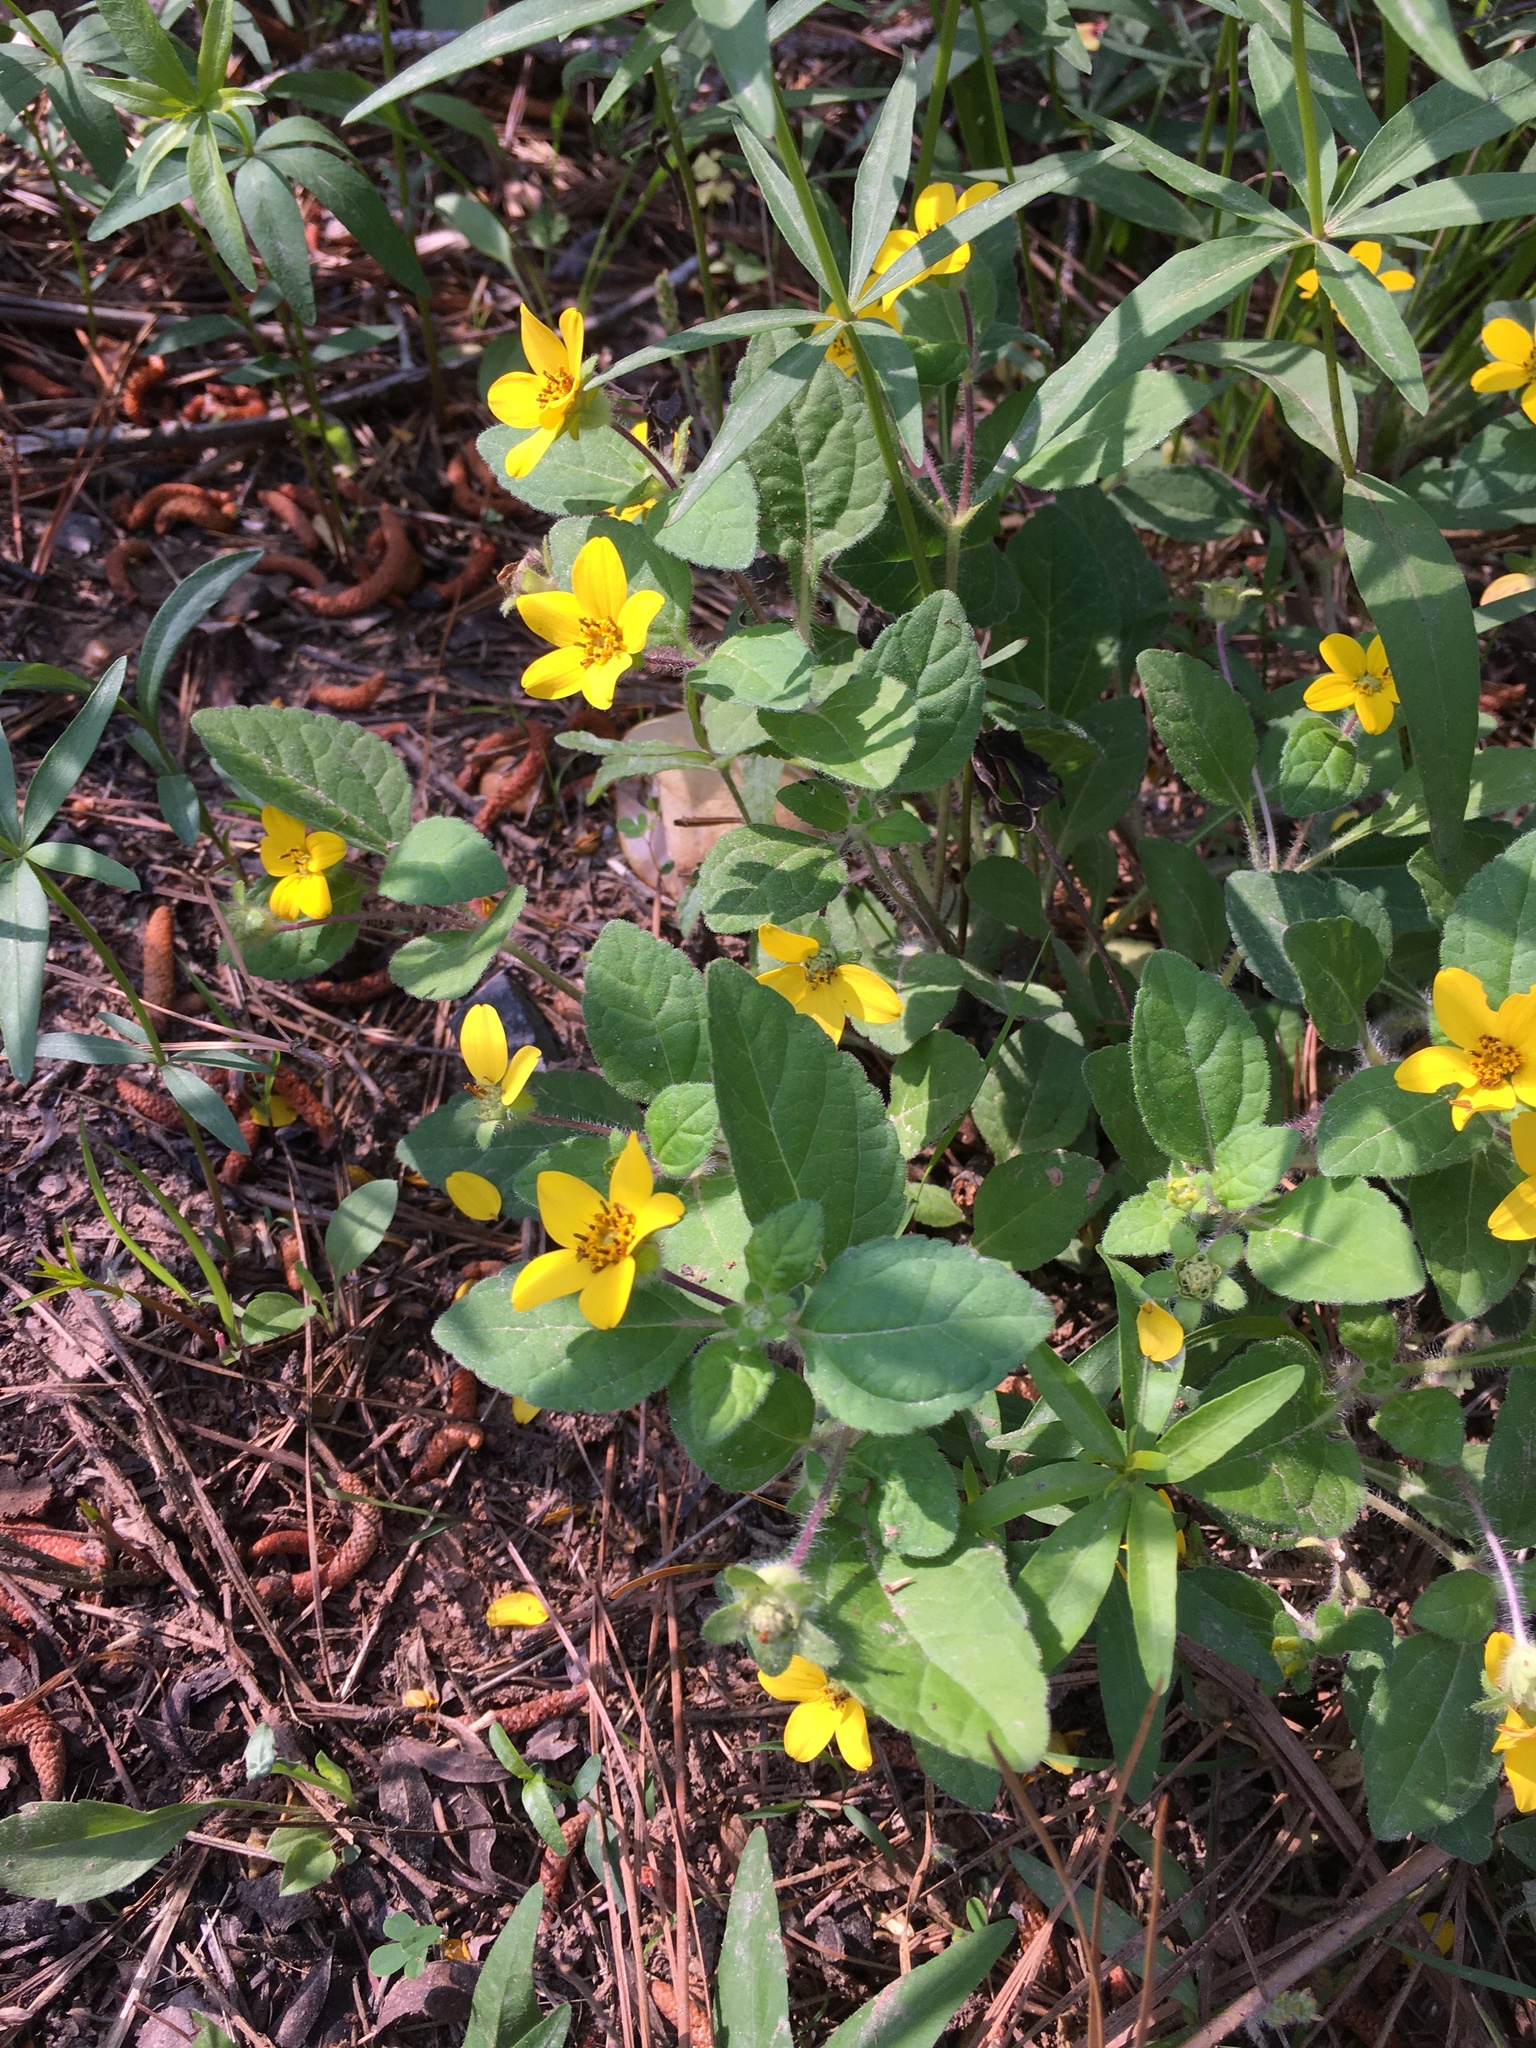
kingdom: Plantae
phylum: Tracheophyta
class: Magnoliopsida
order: Asterales
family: Asteraceae
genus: Chrysogonum
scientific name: Chrysogonum virginianum
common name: Golden-knee
